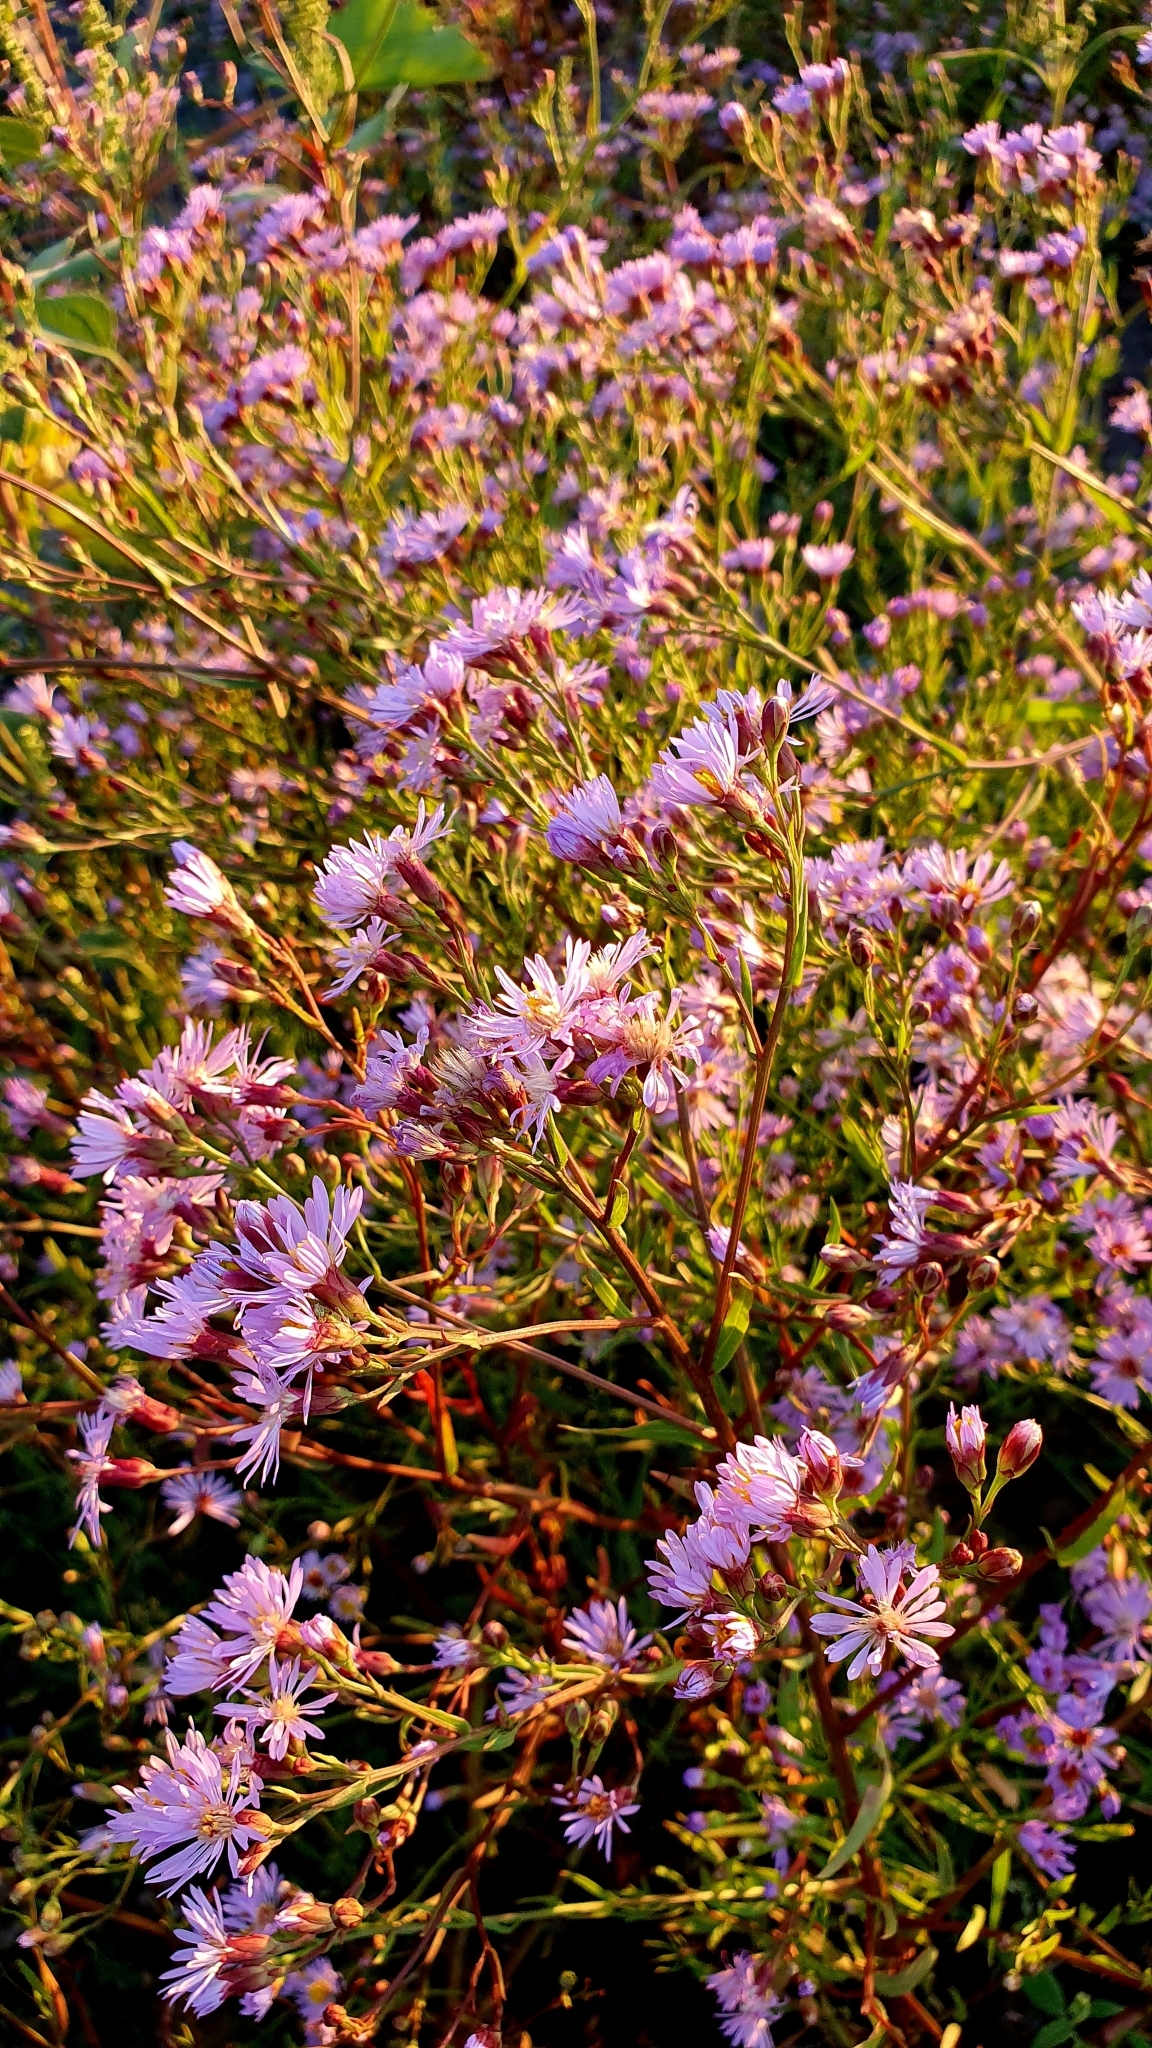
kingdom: Plantae
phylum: Tracheophyta
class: Magnoliopsida
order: Asterales
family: Asteraceae
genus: Tripolium
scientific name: Tripolium pannonicum
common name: Sea aster
